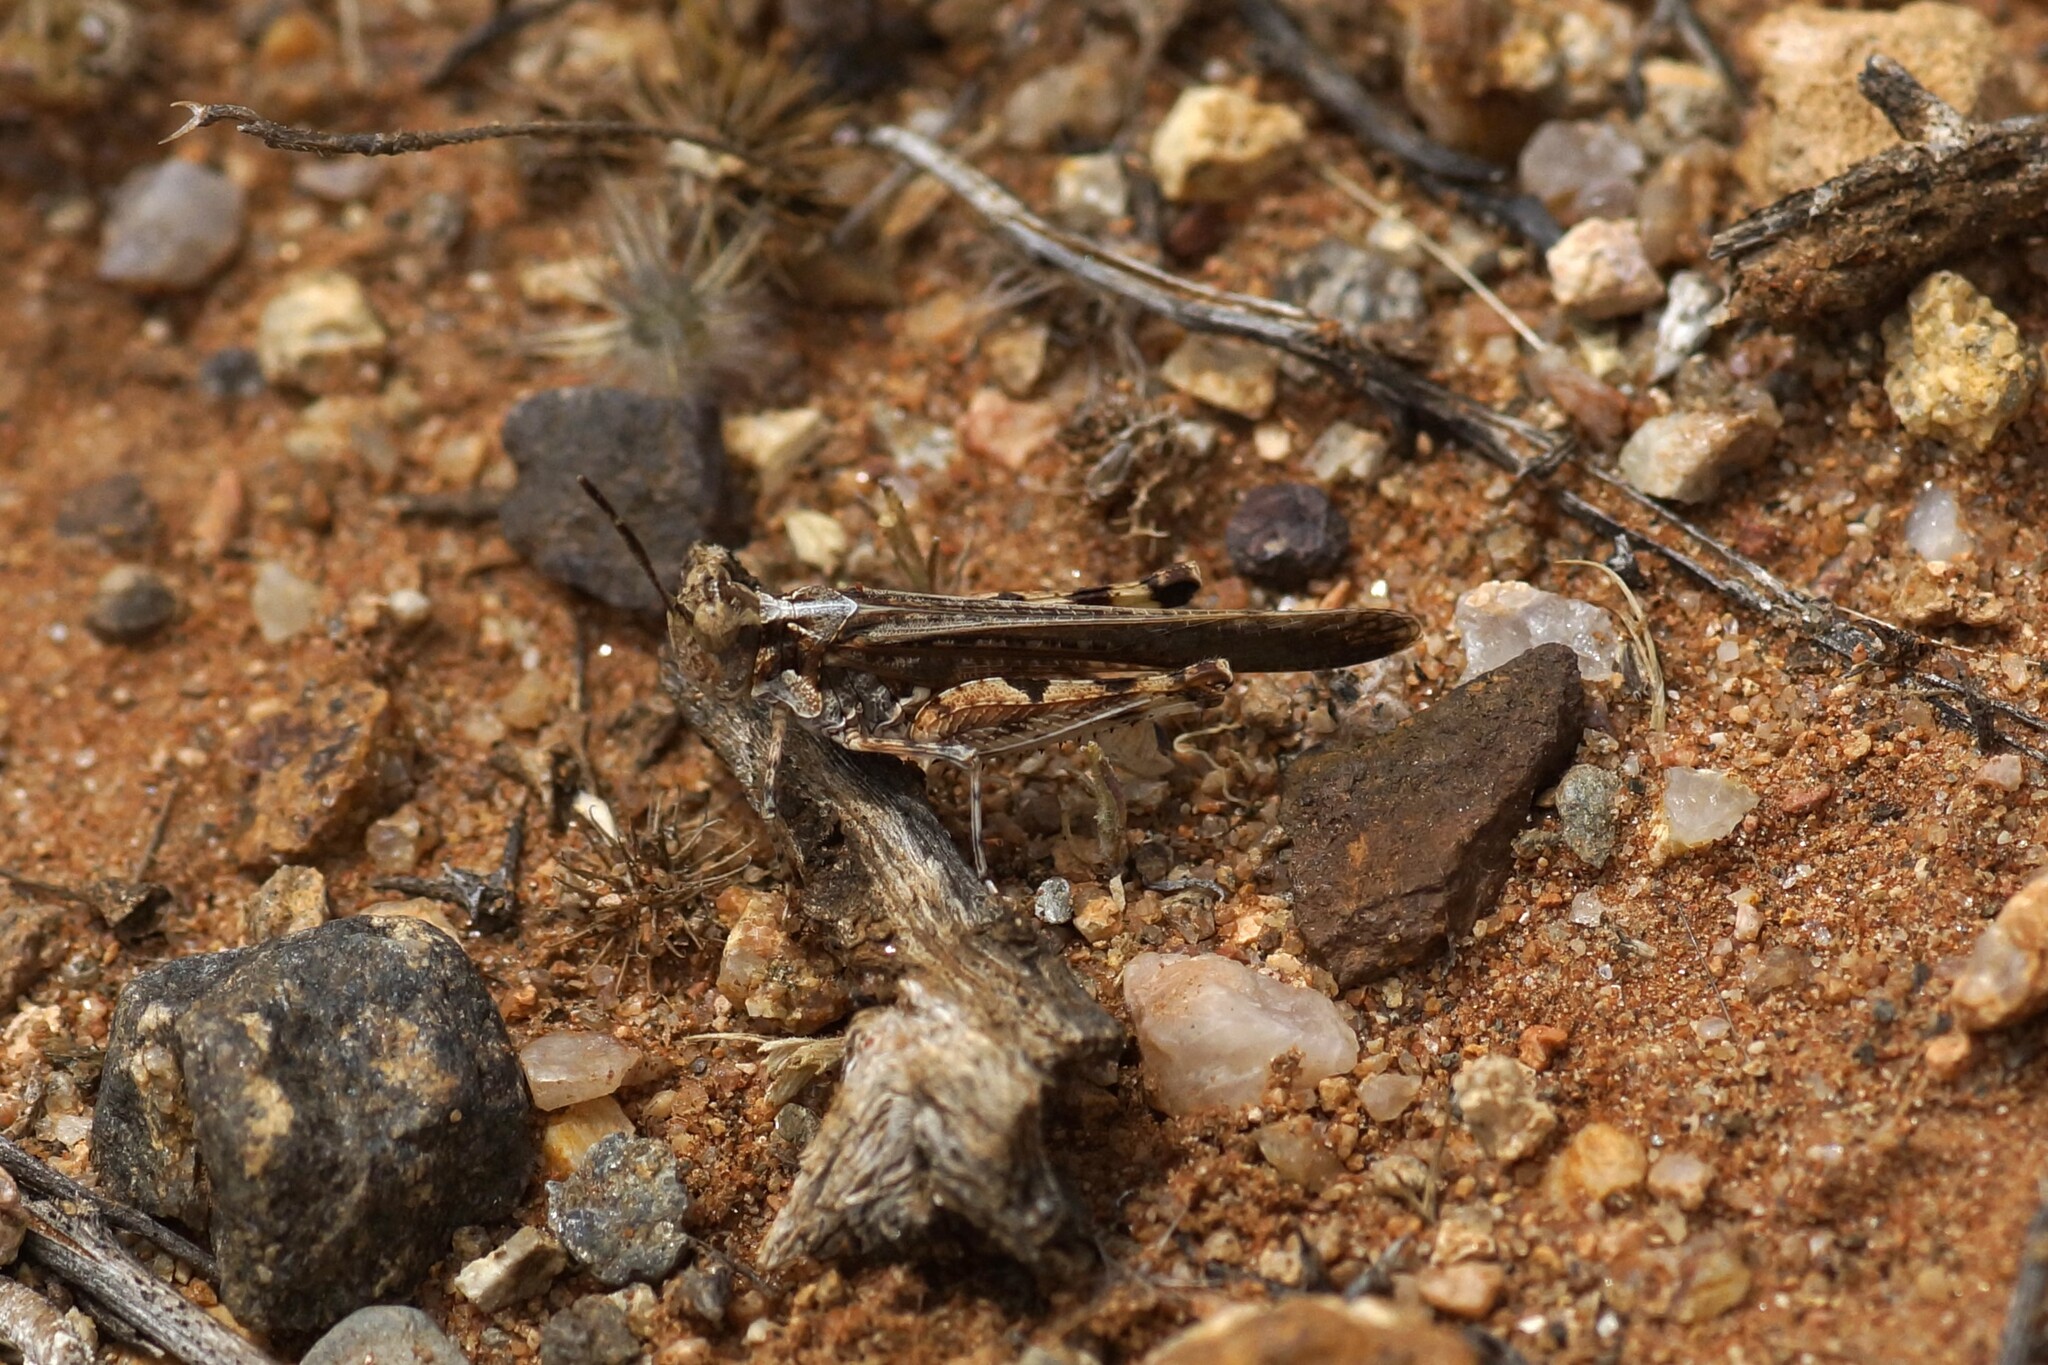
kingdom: Animalia
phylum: Arthropoda
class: Insecta
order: Orthoptera
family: Acrididae
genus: Pycnostictus
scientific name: Pycnostictus seriatus
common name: Common bandwing
